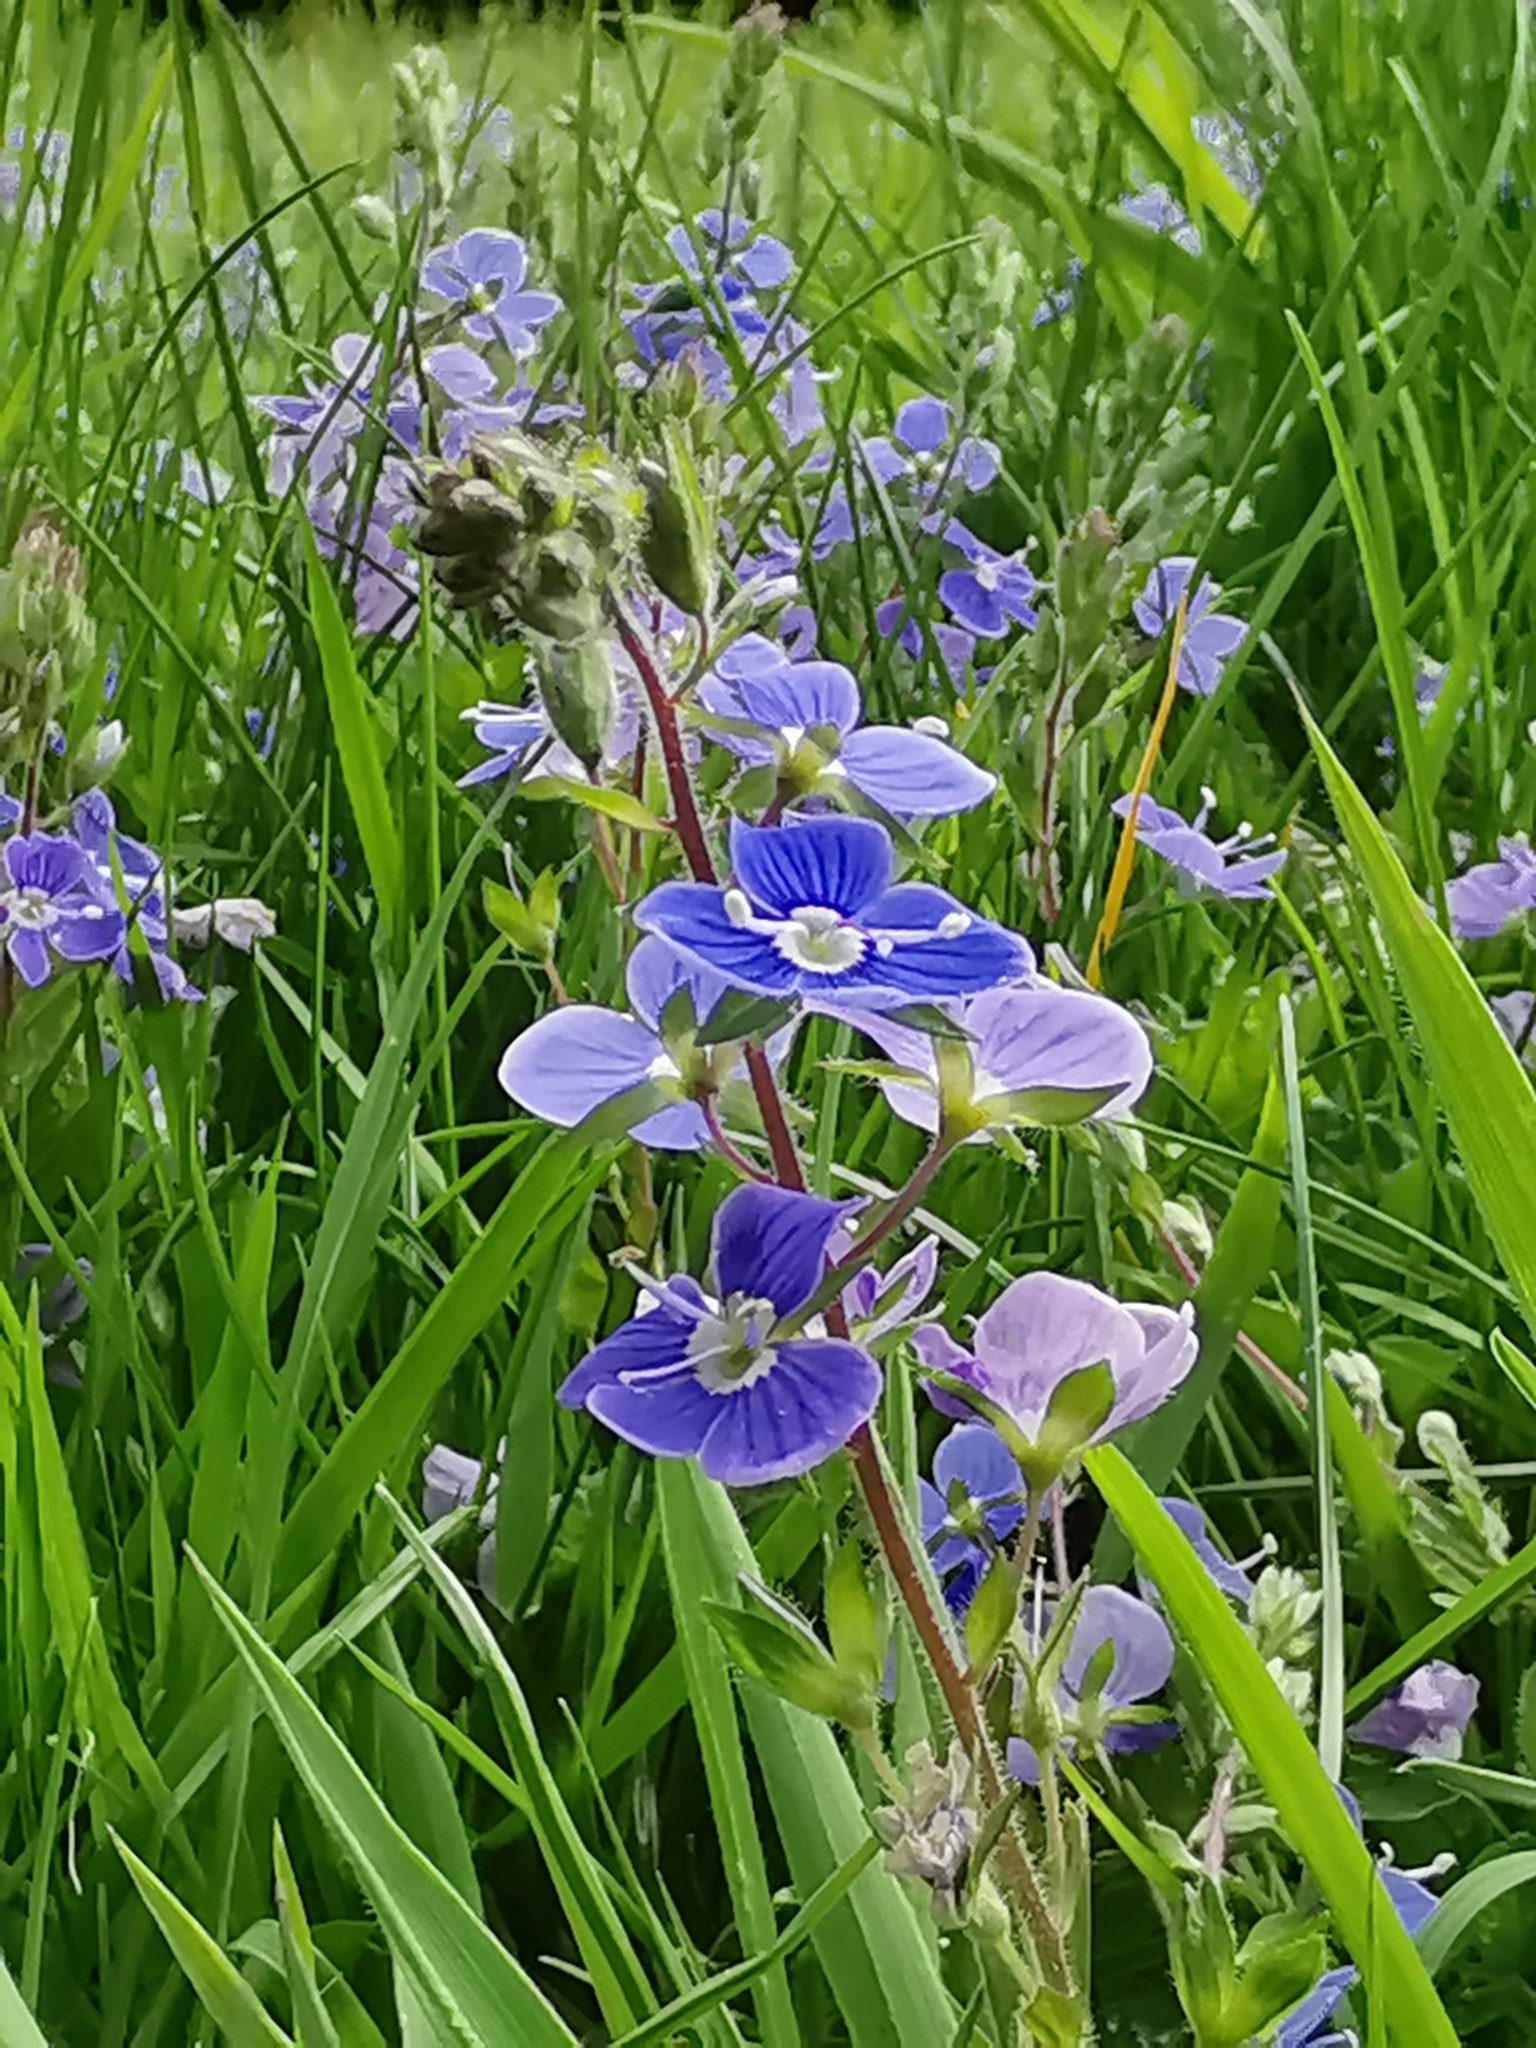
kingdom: Plantae
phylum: Tracheophyta
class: Magnoliopsida
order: Lamiales
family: Plantaginaceae
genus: Veronica
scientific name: Veronica chamaedrys
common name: Germander speedwell
